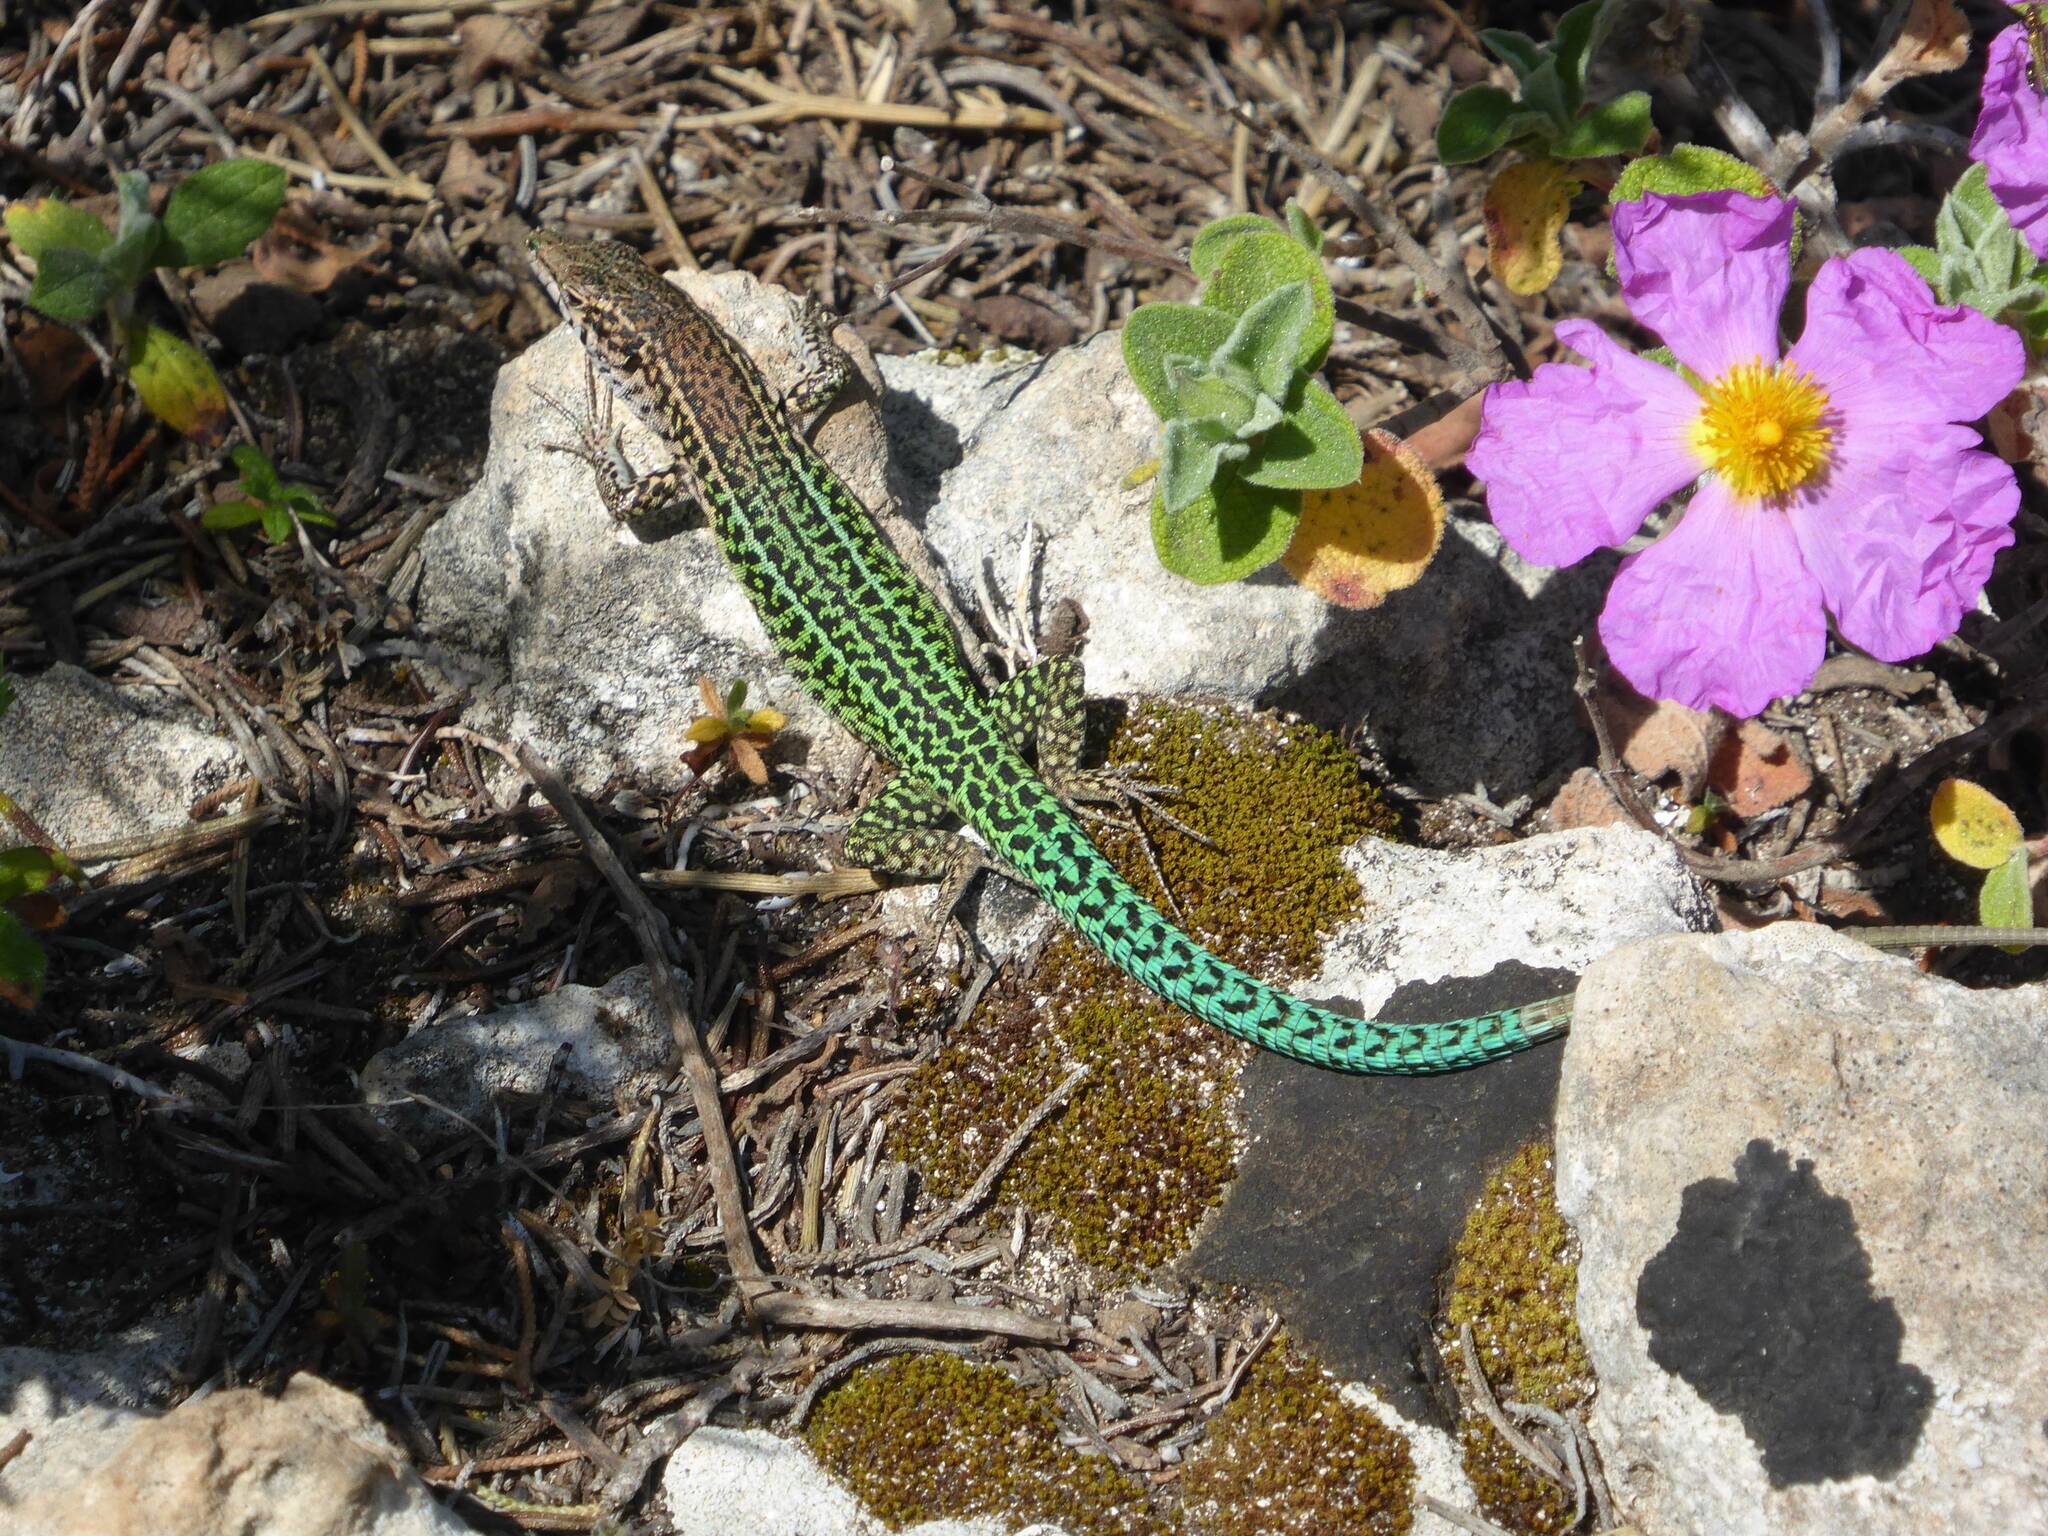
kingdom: Animalia
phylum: Chordata
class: Squamata
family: Lacertidae
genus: Podarcis
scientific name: Podarcis tiliguerta
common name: Tyrrhenian wall lizard
